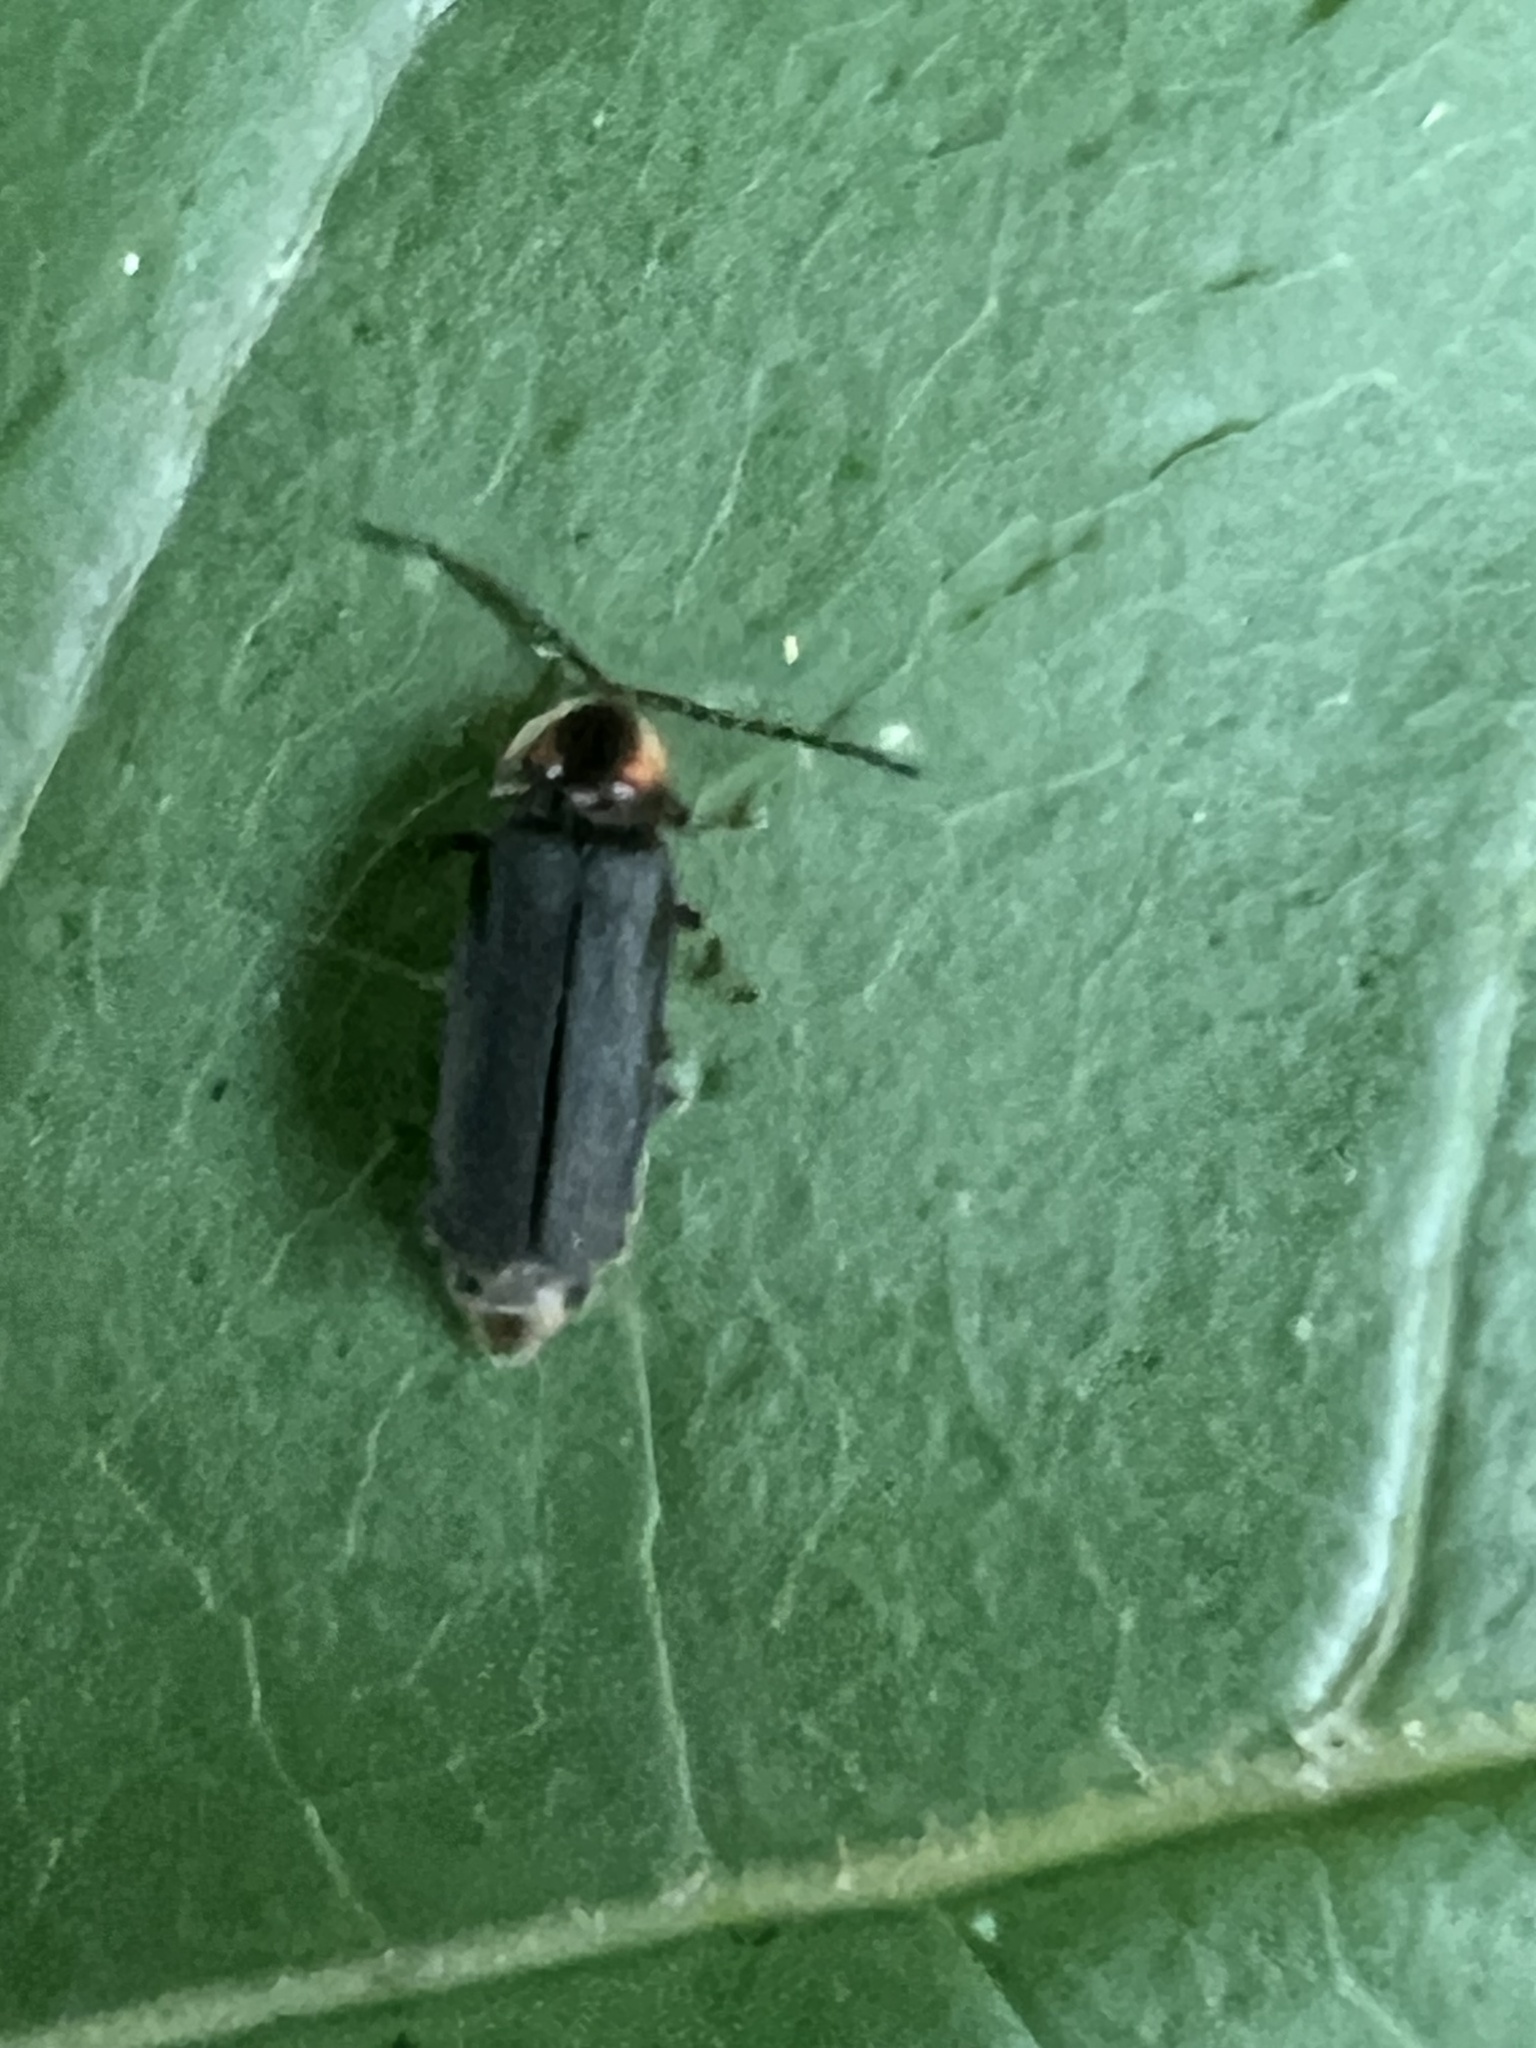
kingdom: Animalia
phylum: Arthropoda
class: Insecta
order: Coleoptera
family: Lampyridae
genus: Lucidota
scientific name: Lucidota punctata
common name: Dotted firefly
